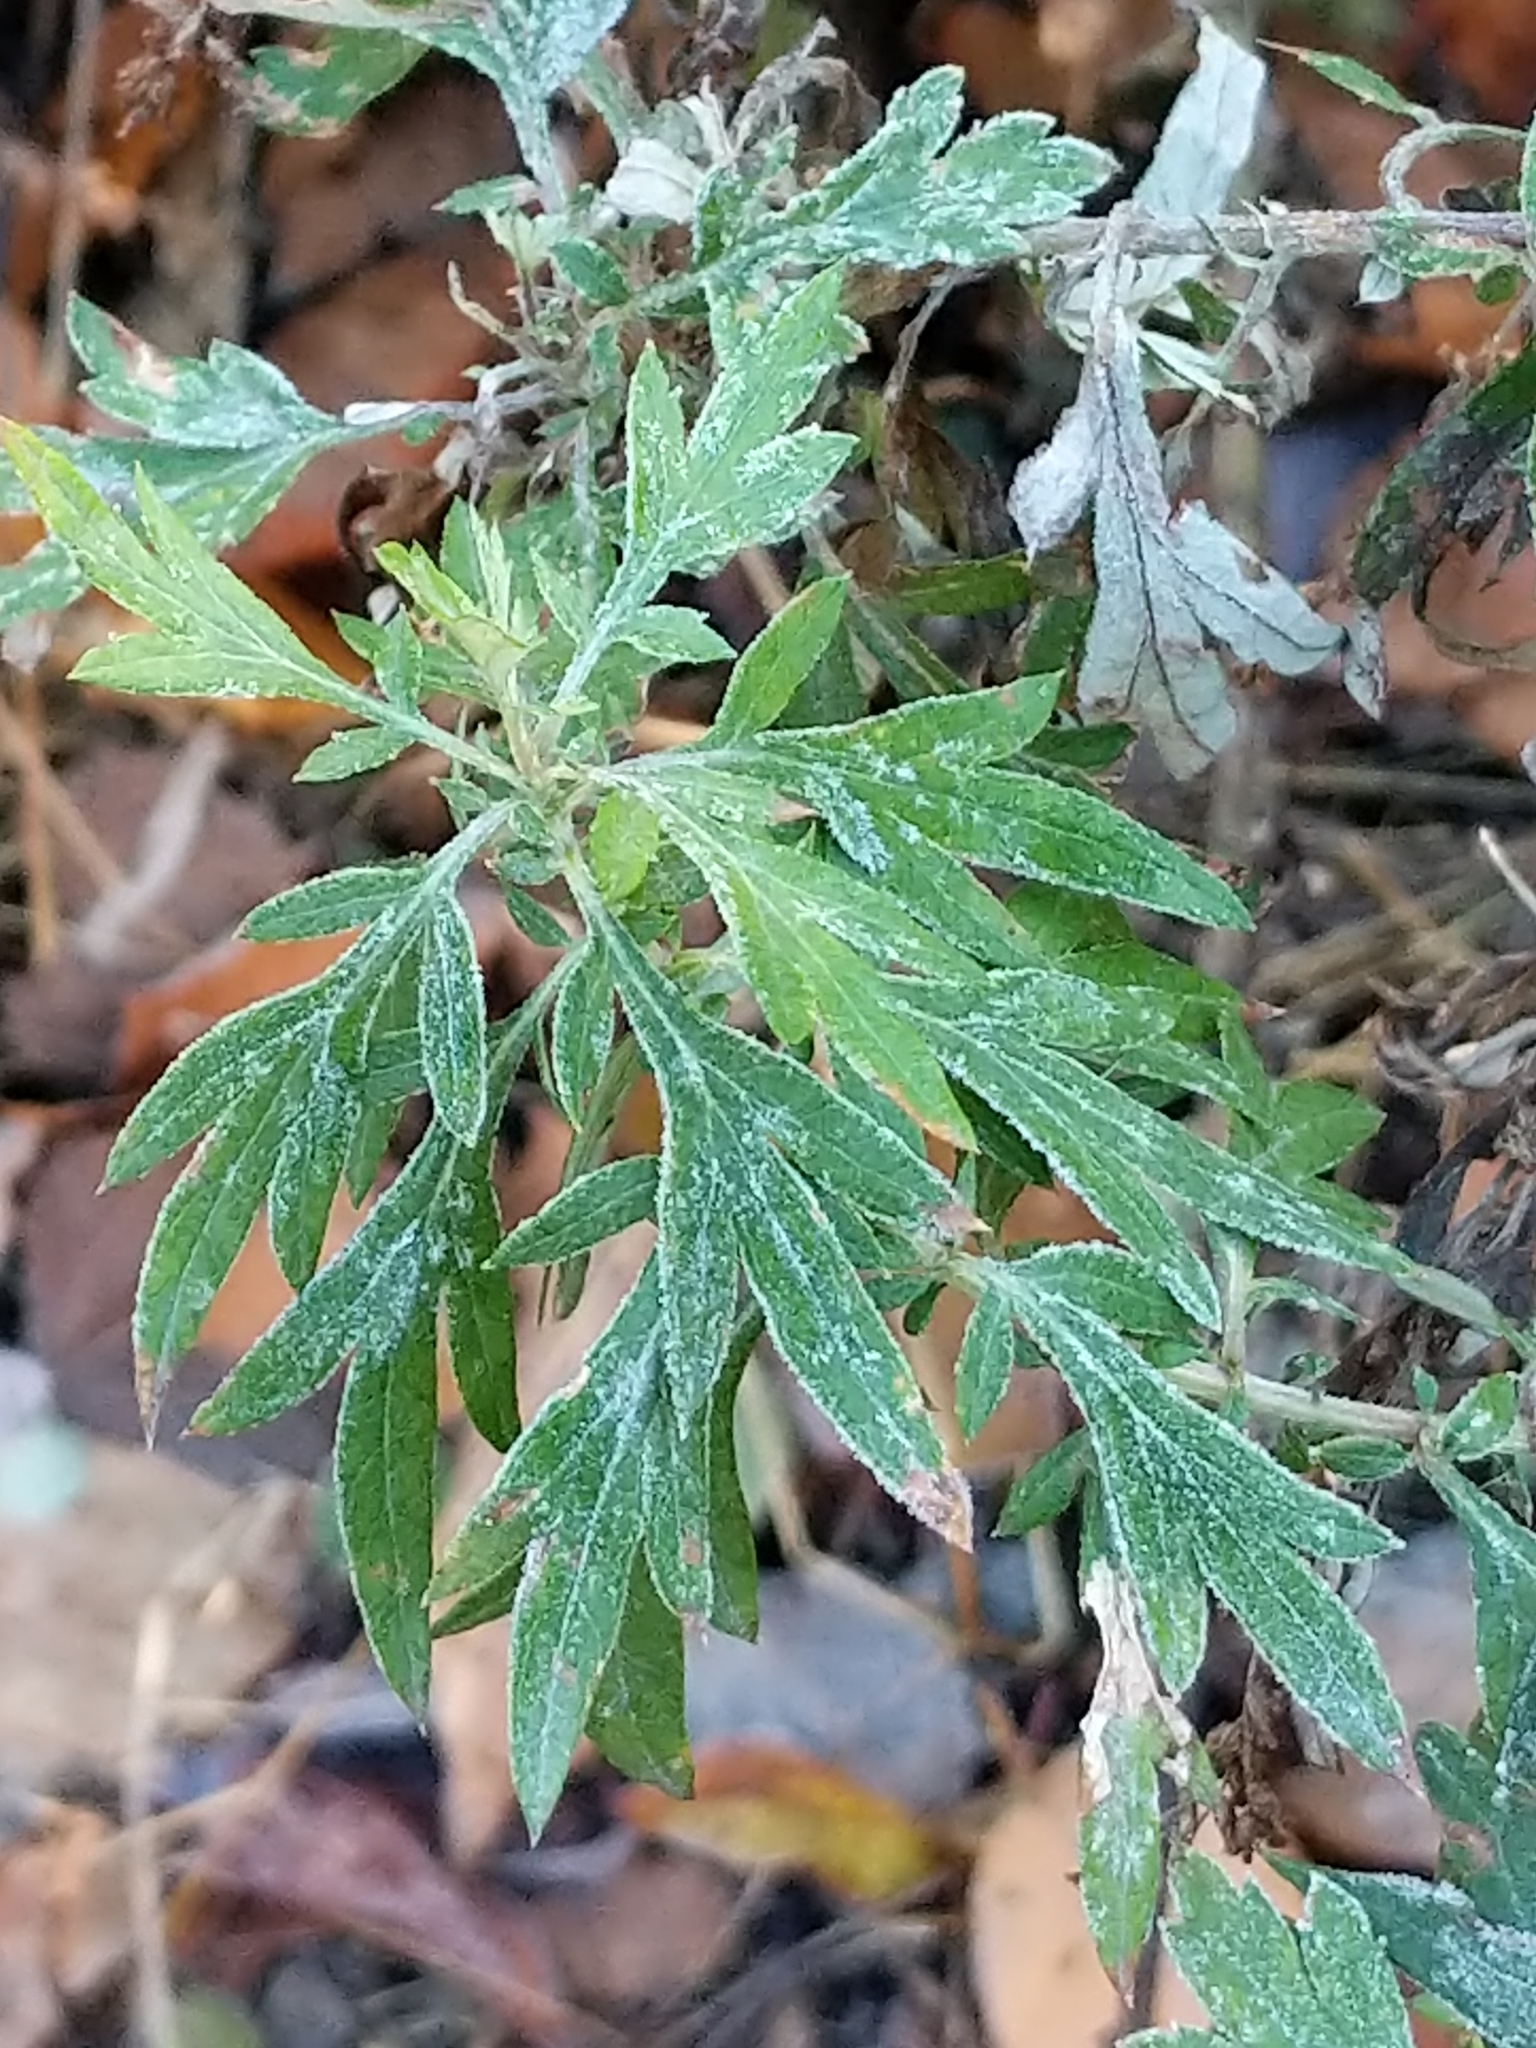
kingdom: Plantae
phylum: Tracheophyta
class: Magnoliopsida
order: Asterales
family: Asteraceae
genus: Artemisia
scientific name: Artemisia vulgaris
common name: Mugwort
